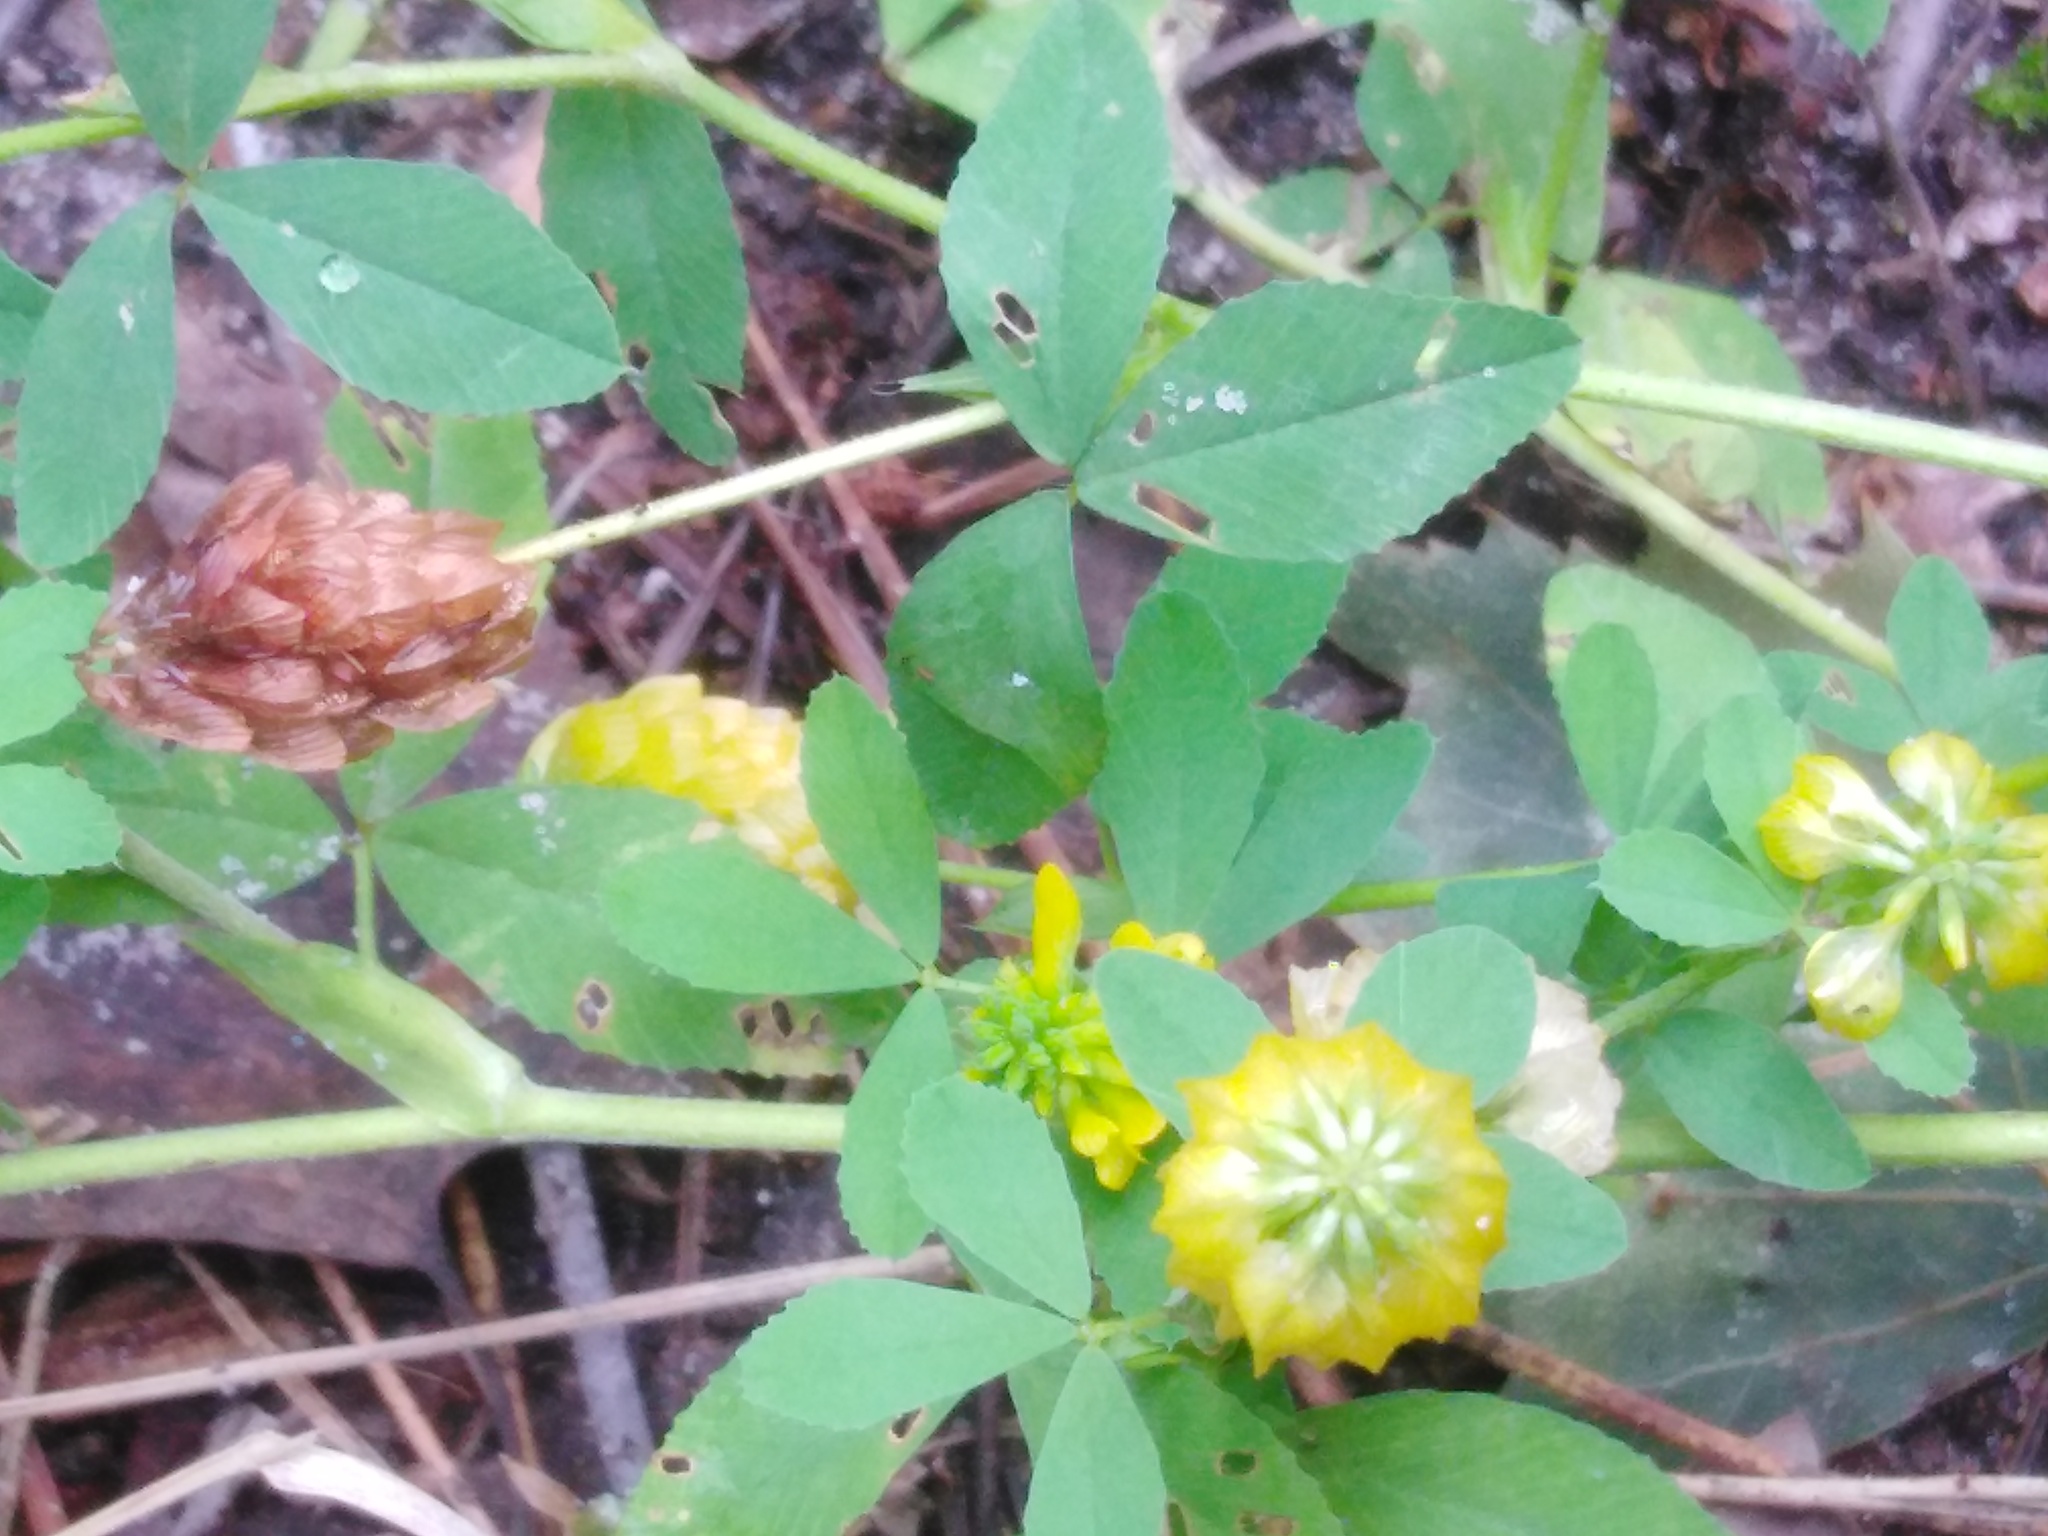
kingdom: Plantae
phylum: Tracheophyta
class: Magnoliopsida
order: Fabales
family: Fabaceae
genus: Trifolium
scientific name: Trifolium aureum
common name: Golden clover
